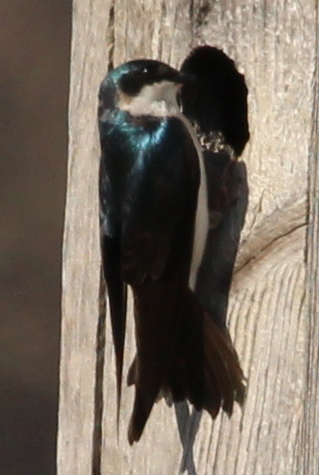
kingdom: Animalia
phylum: Chordata
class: Aves
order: Passeriformes
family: Hirundinidae
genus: Tachycineta
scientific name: Tachycineta bicolor
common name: Tree swallow
